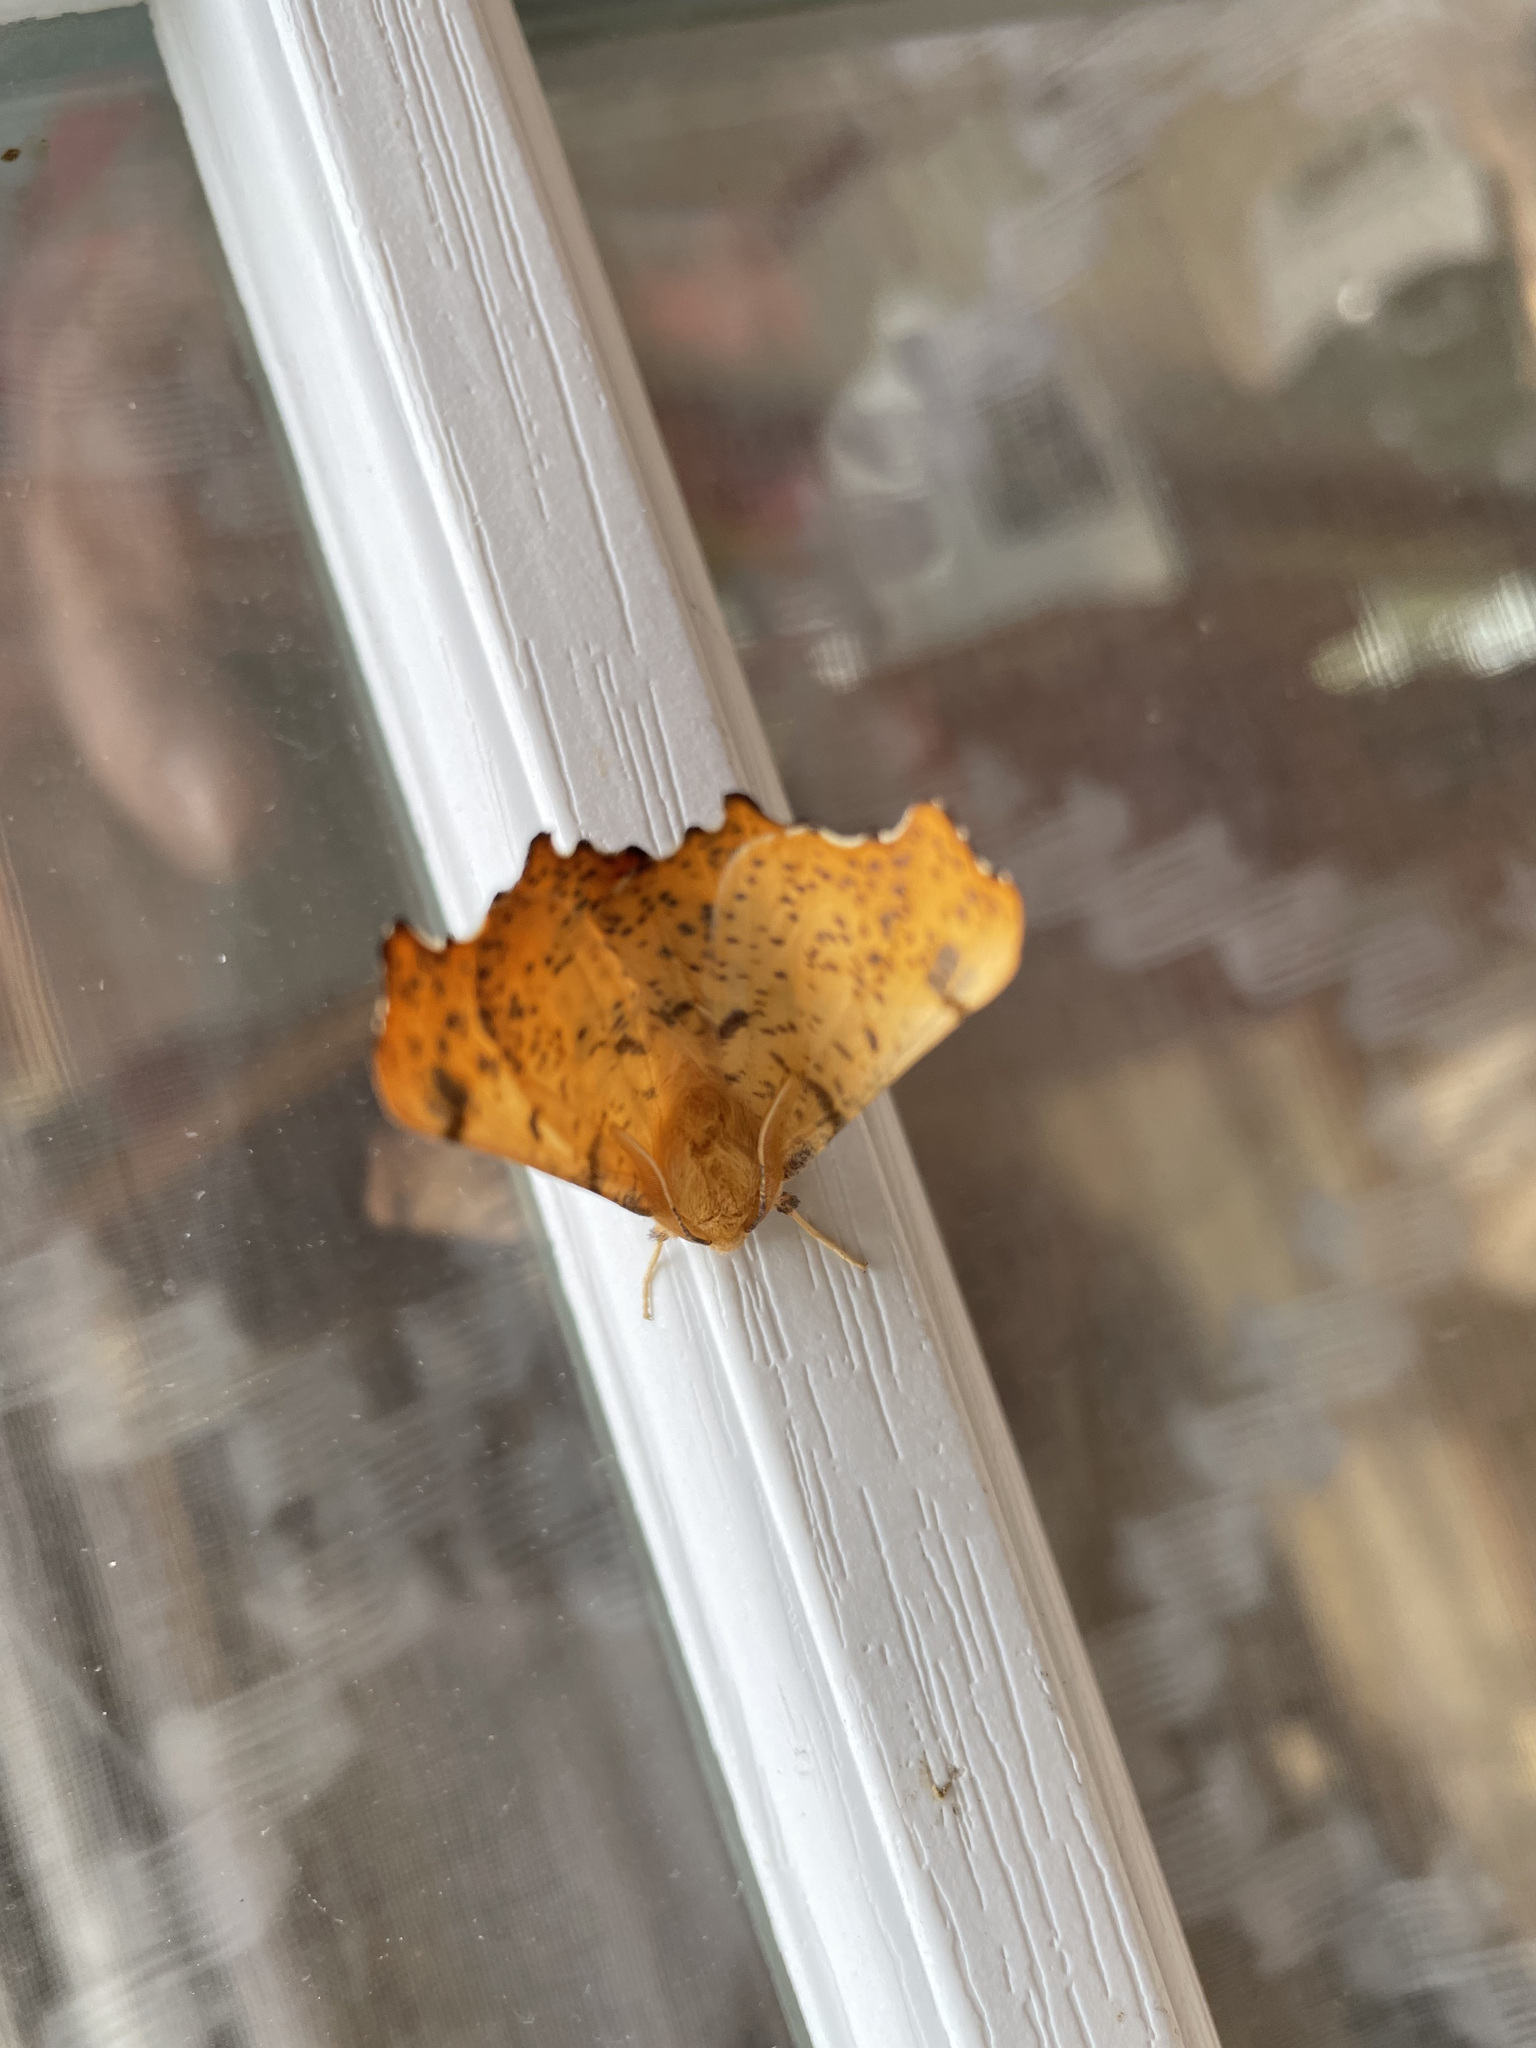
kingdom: Animalia
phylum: Arthropoda
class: Insecta
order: Lepidoptera
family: Geometridae
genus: Ennomos
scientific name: Ennomos magnaria
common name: Maple spanworm
